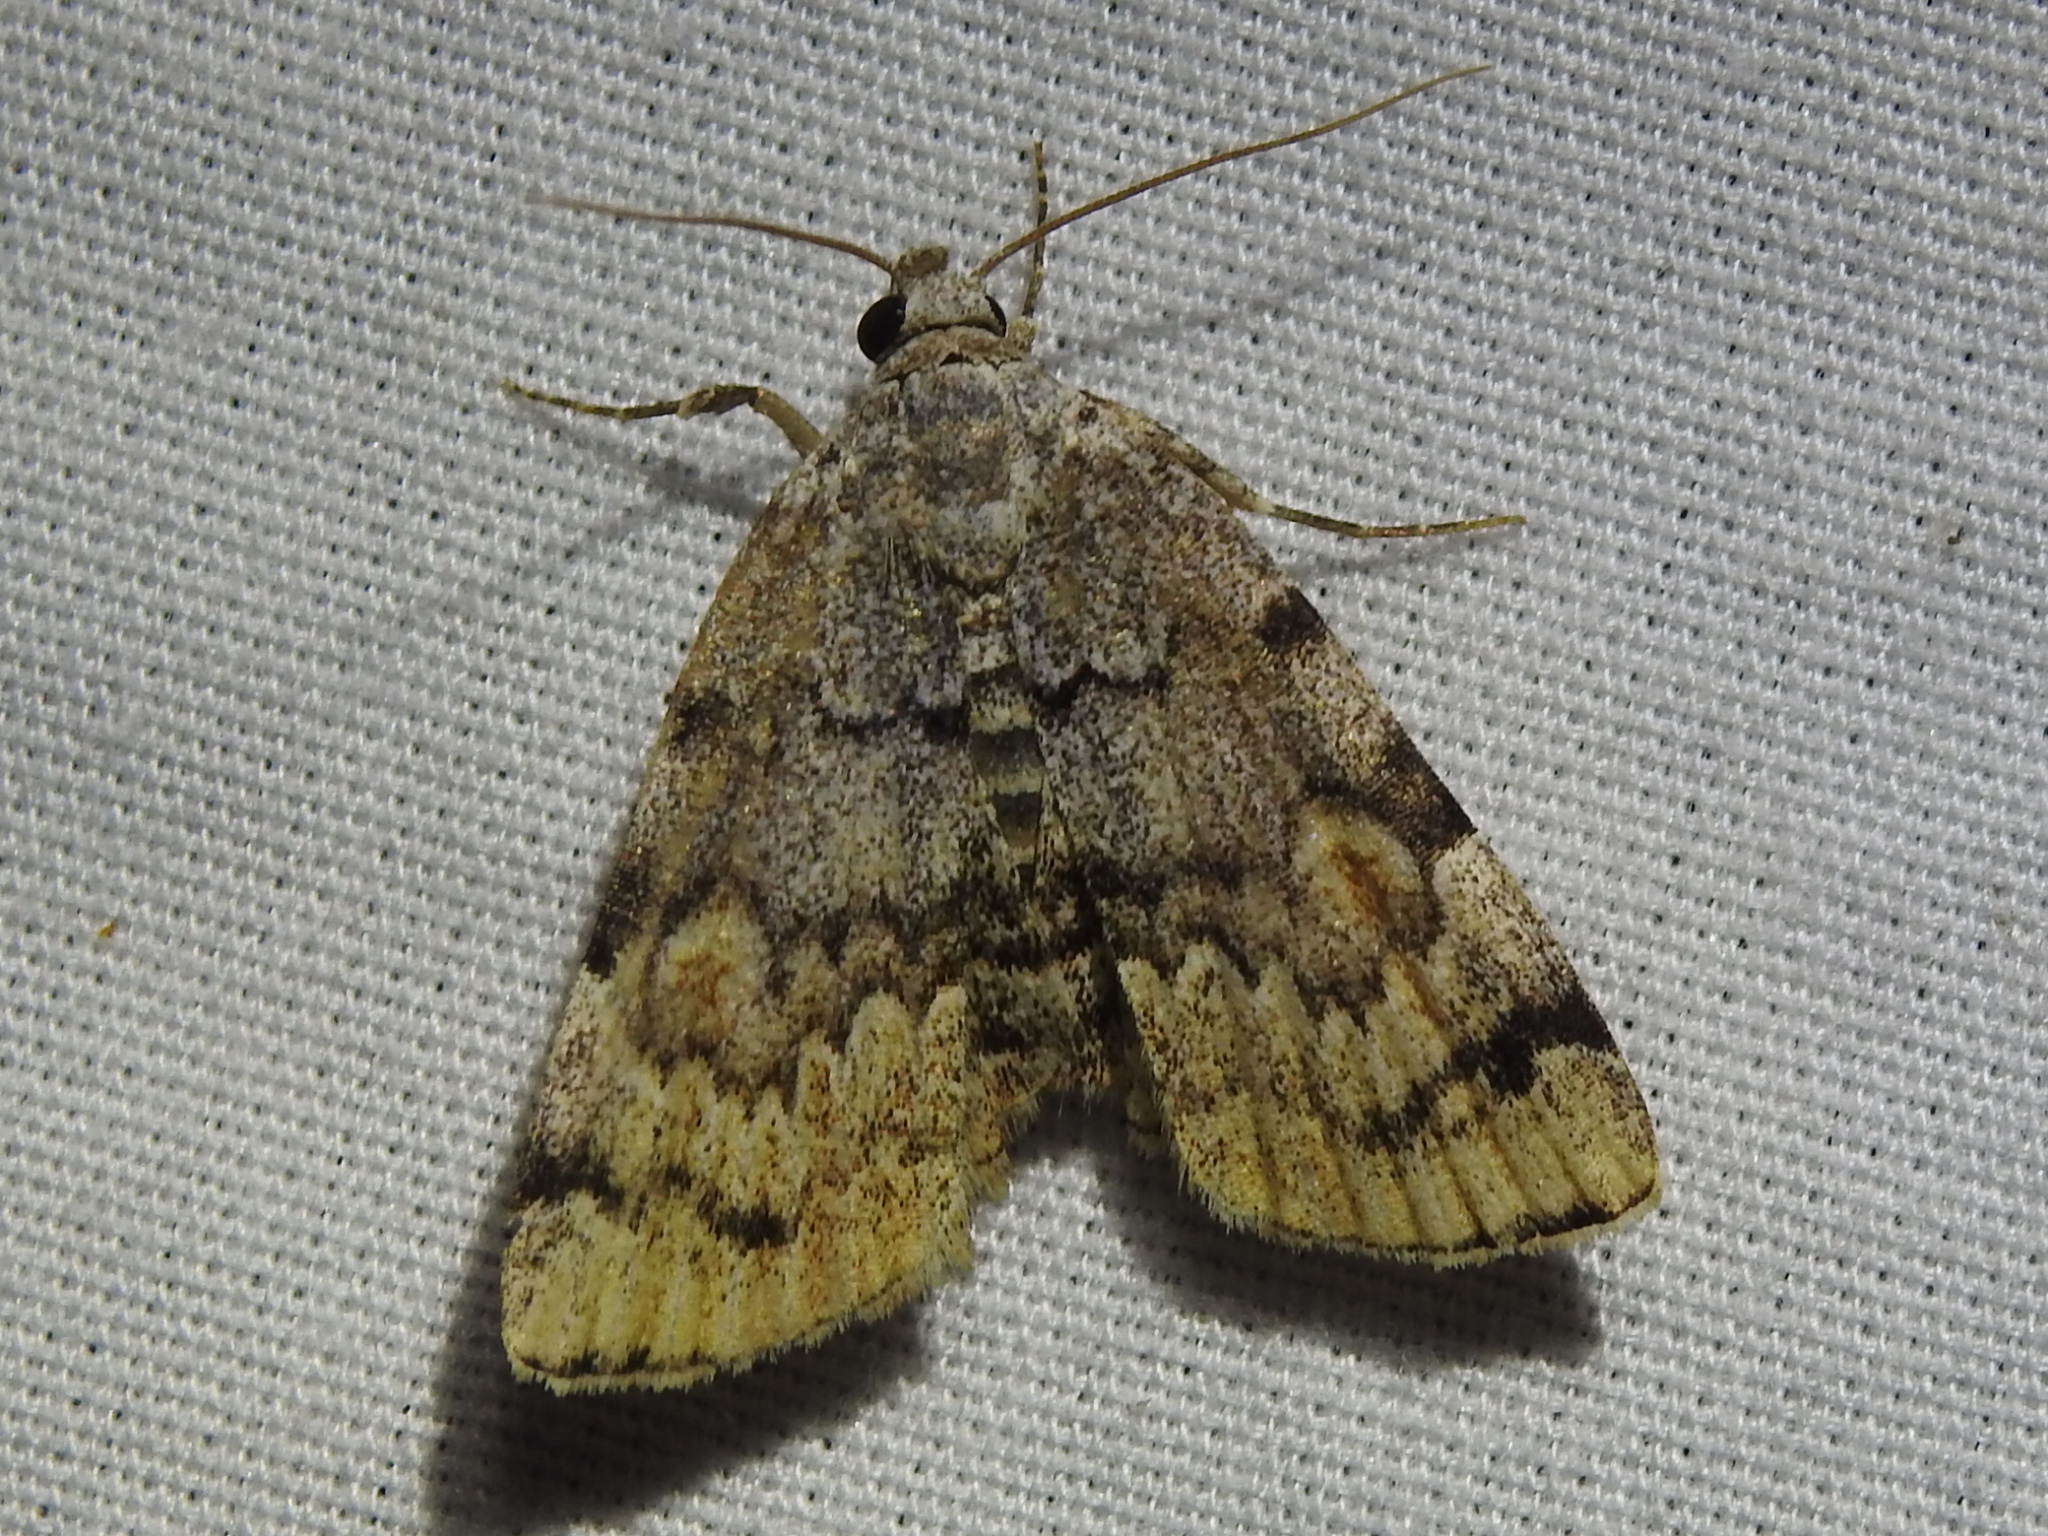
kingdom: Animalia
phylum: Arthropoda
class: Insecta
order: Lepidoptera
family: Erebidae
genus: Idia
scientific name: Idia americalis
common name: American idia moth
